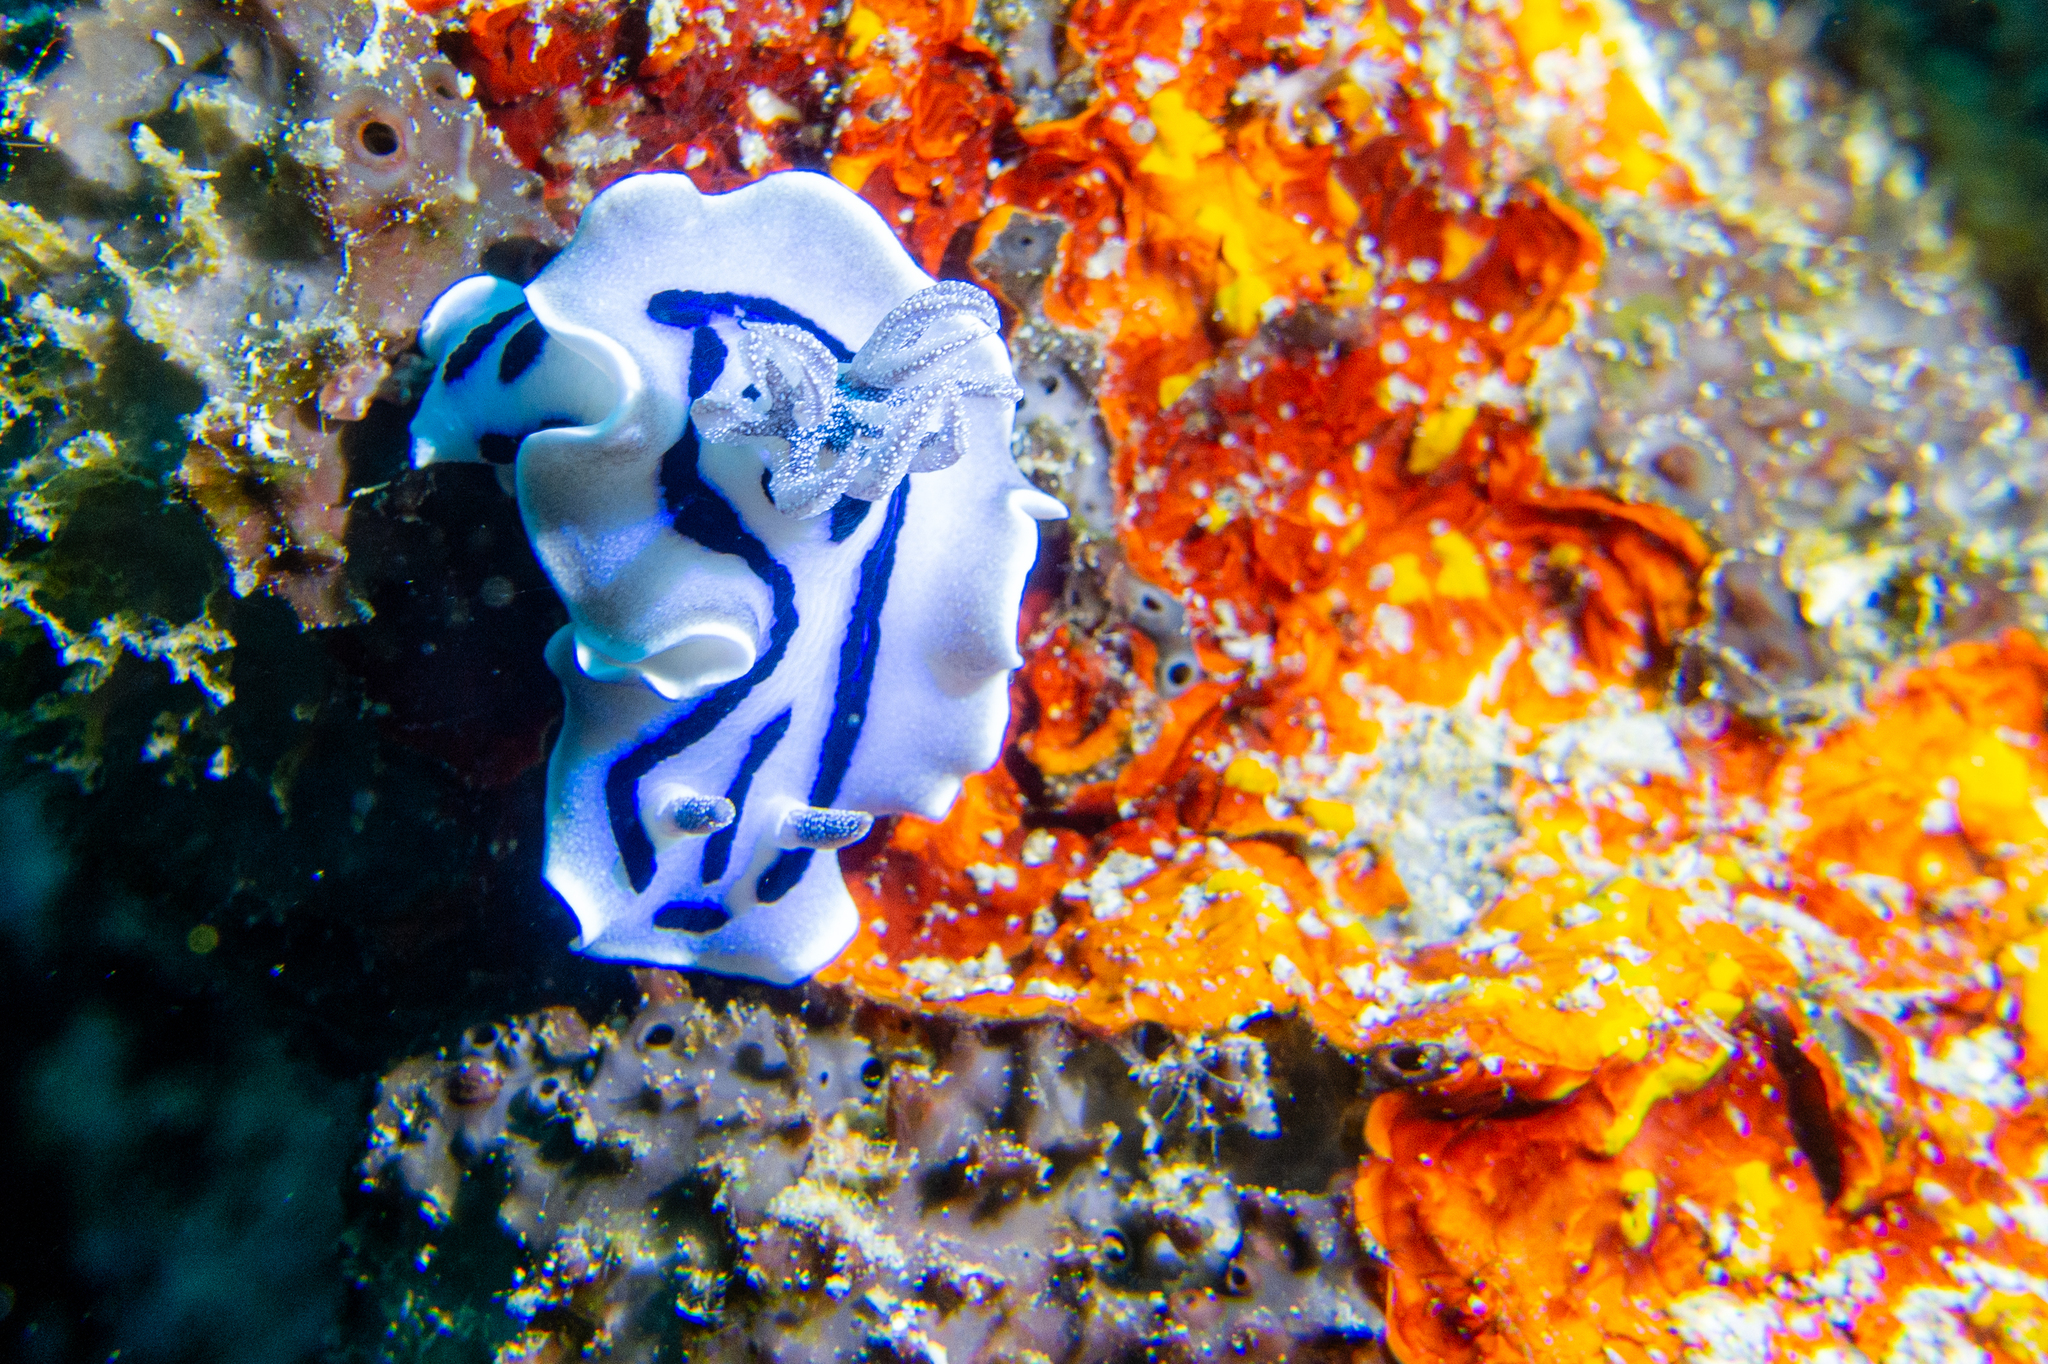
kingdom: Animalia
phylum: Mollusca
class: Gastropoda
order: Nudibranchia
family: Chromodorididae
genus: Chromodoris
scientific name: Chromodoris willani
